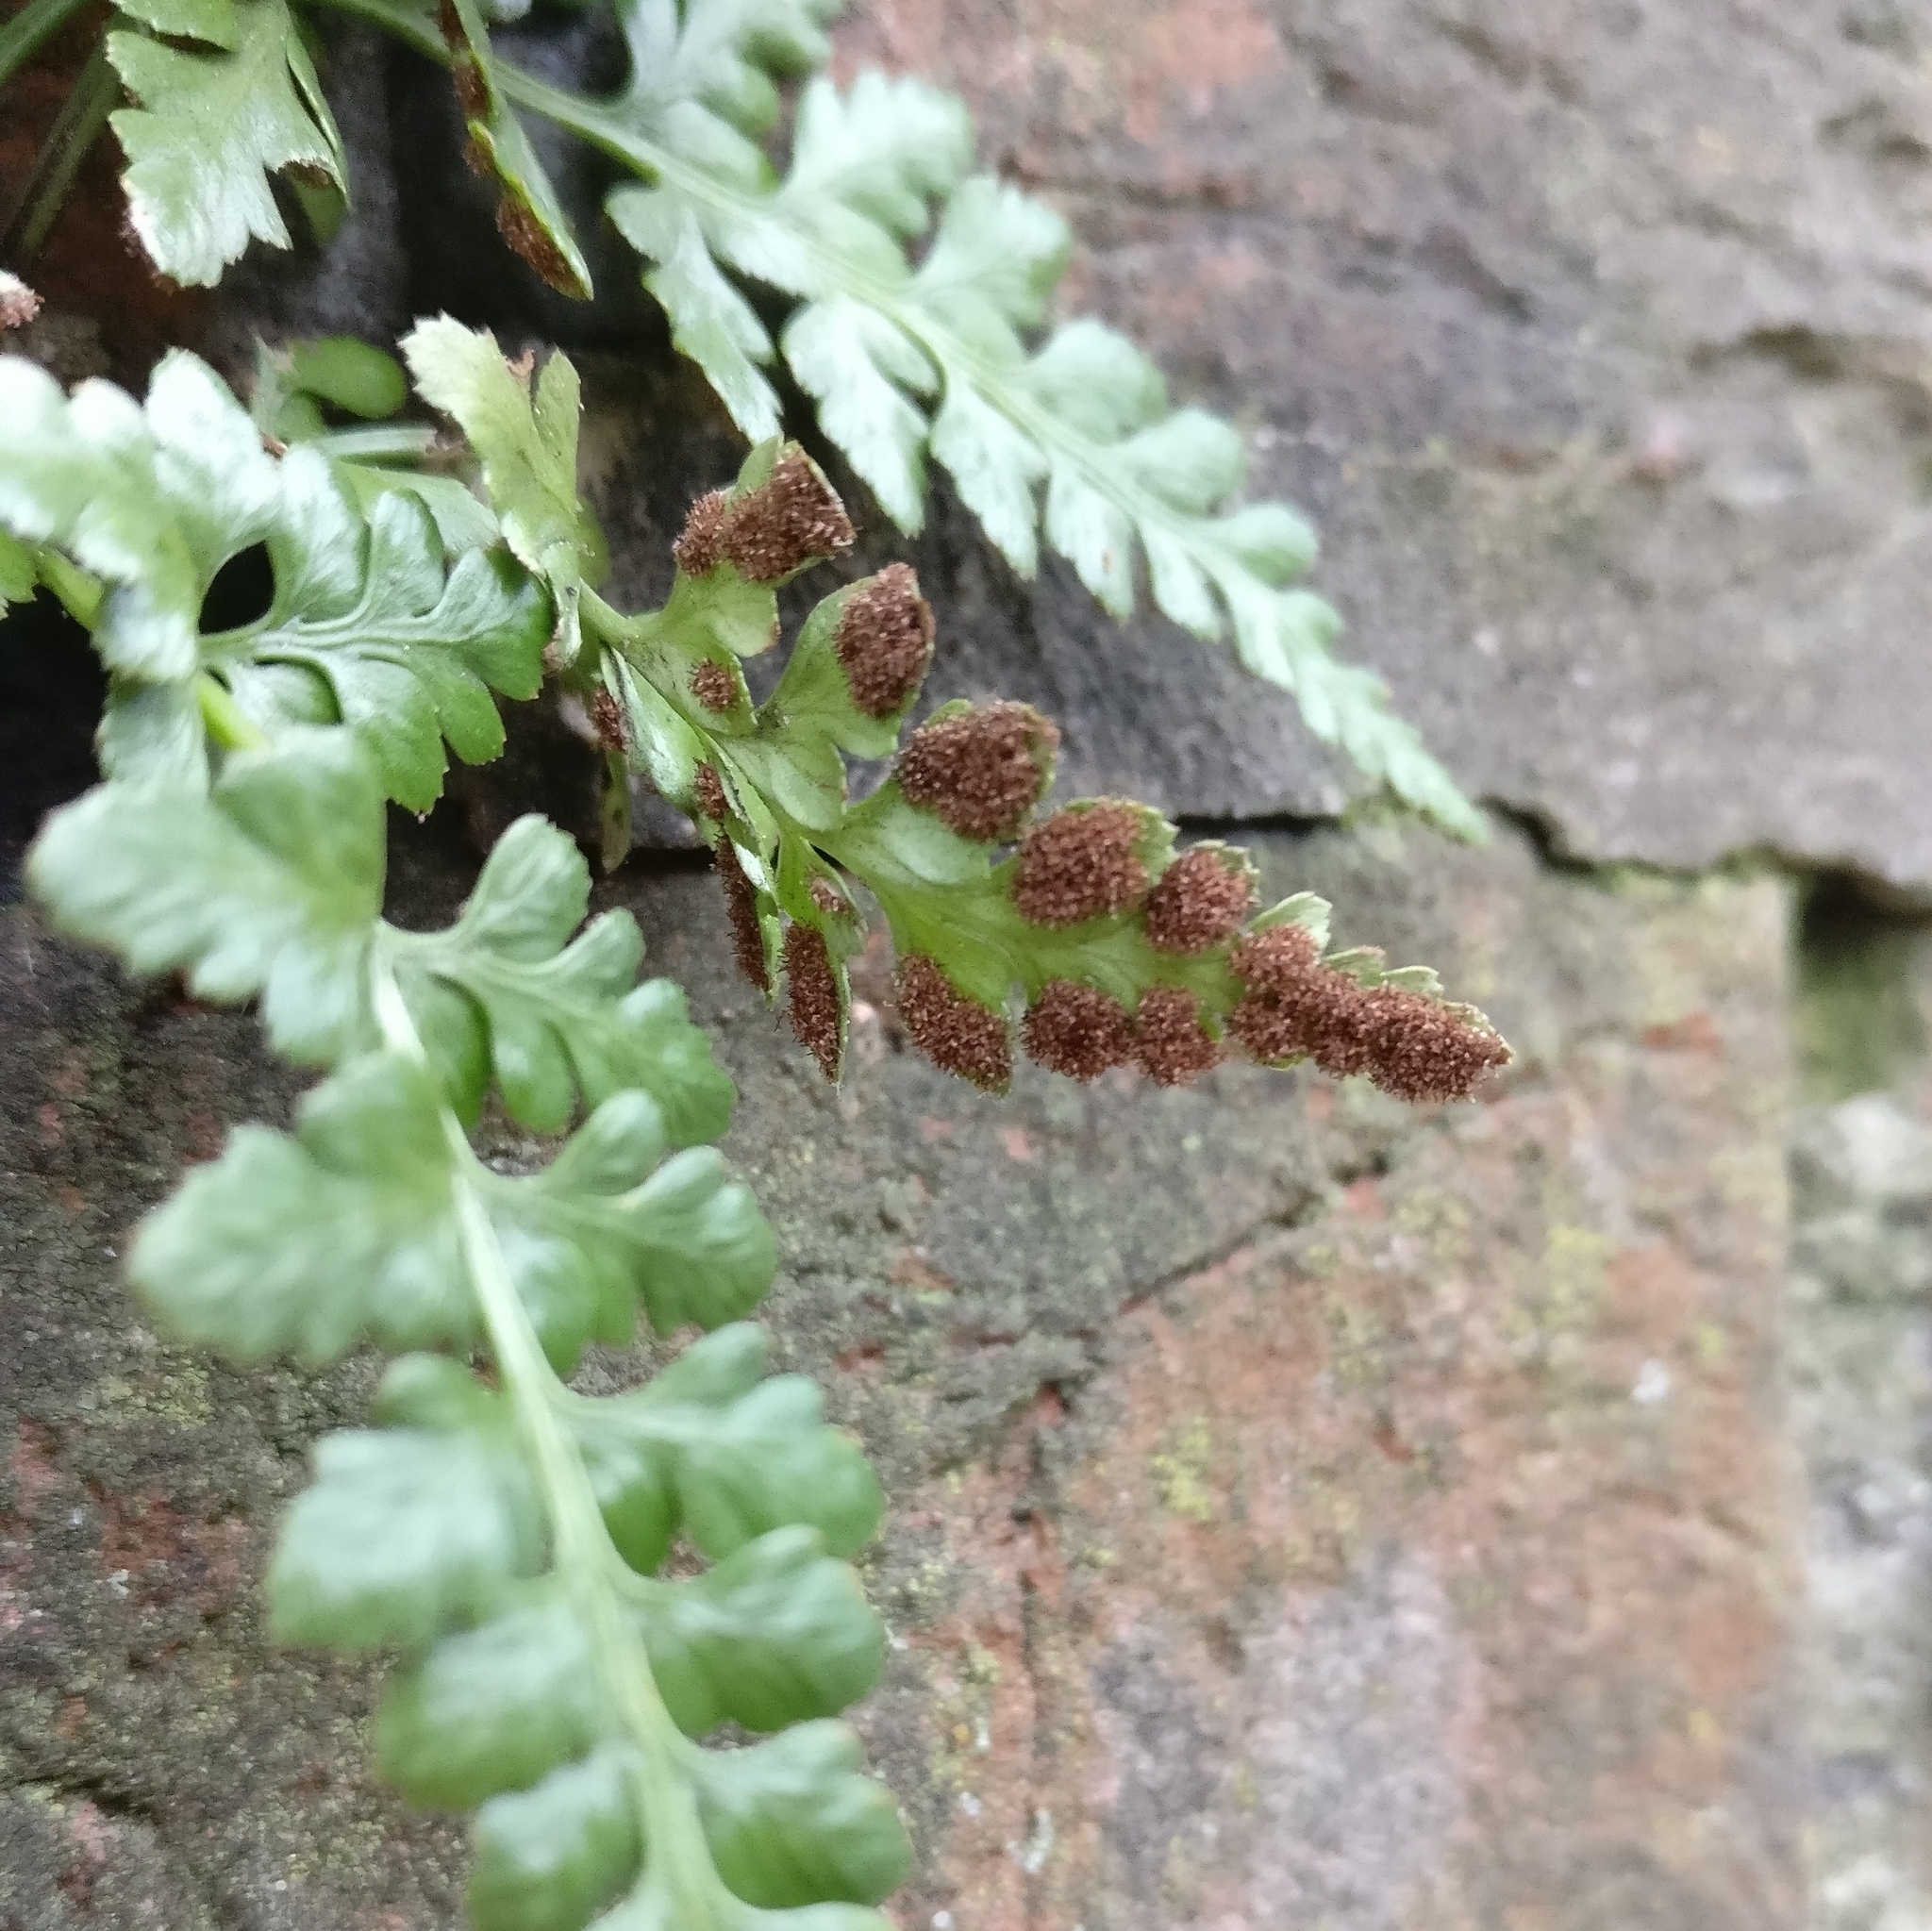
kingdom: Plantae
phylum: Tracheophyta
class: Polypodiopsida
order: Polypodiales
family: Aspleniaceae
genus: Asplenium
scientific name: Asplenium adiantum-nigrum
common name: Black spleenwort
